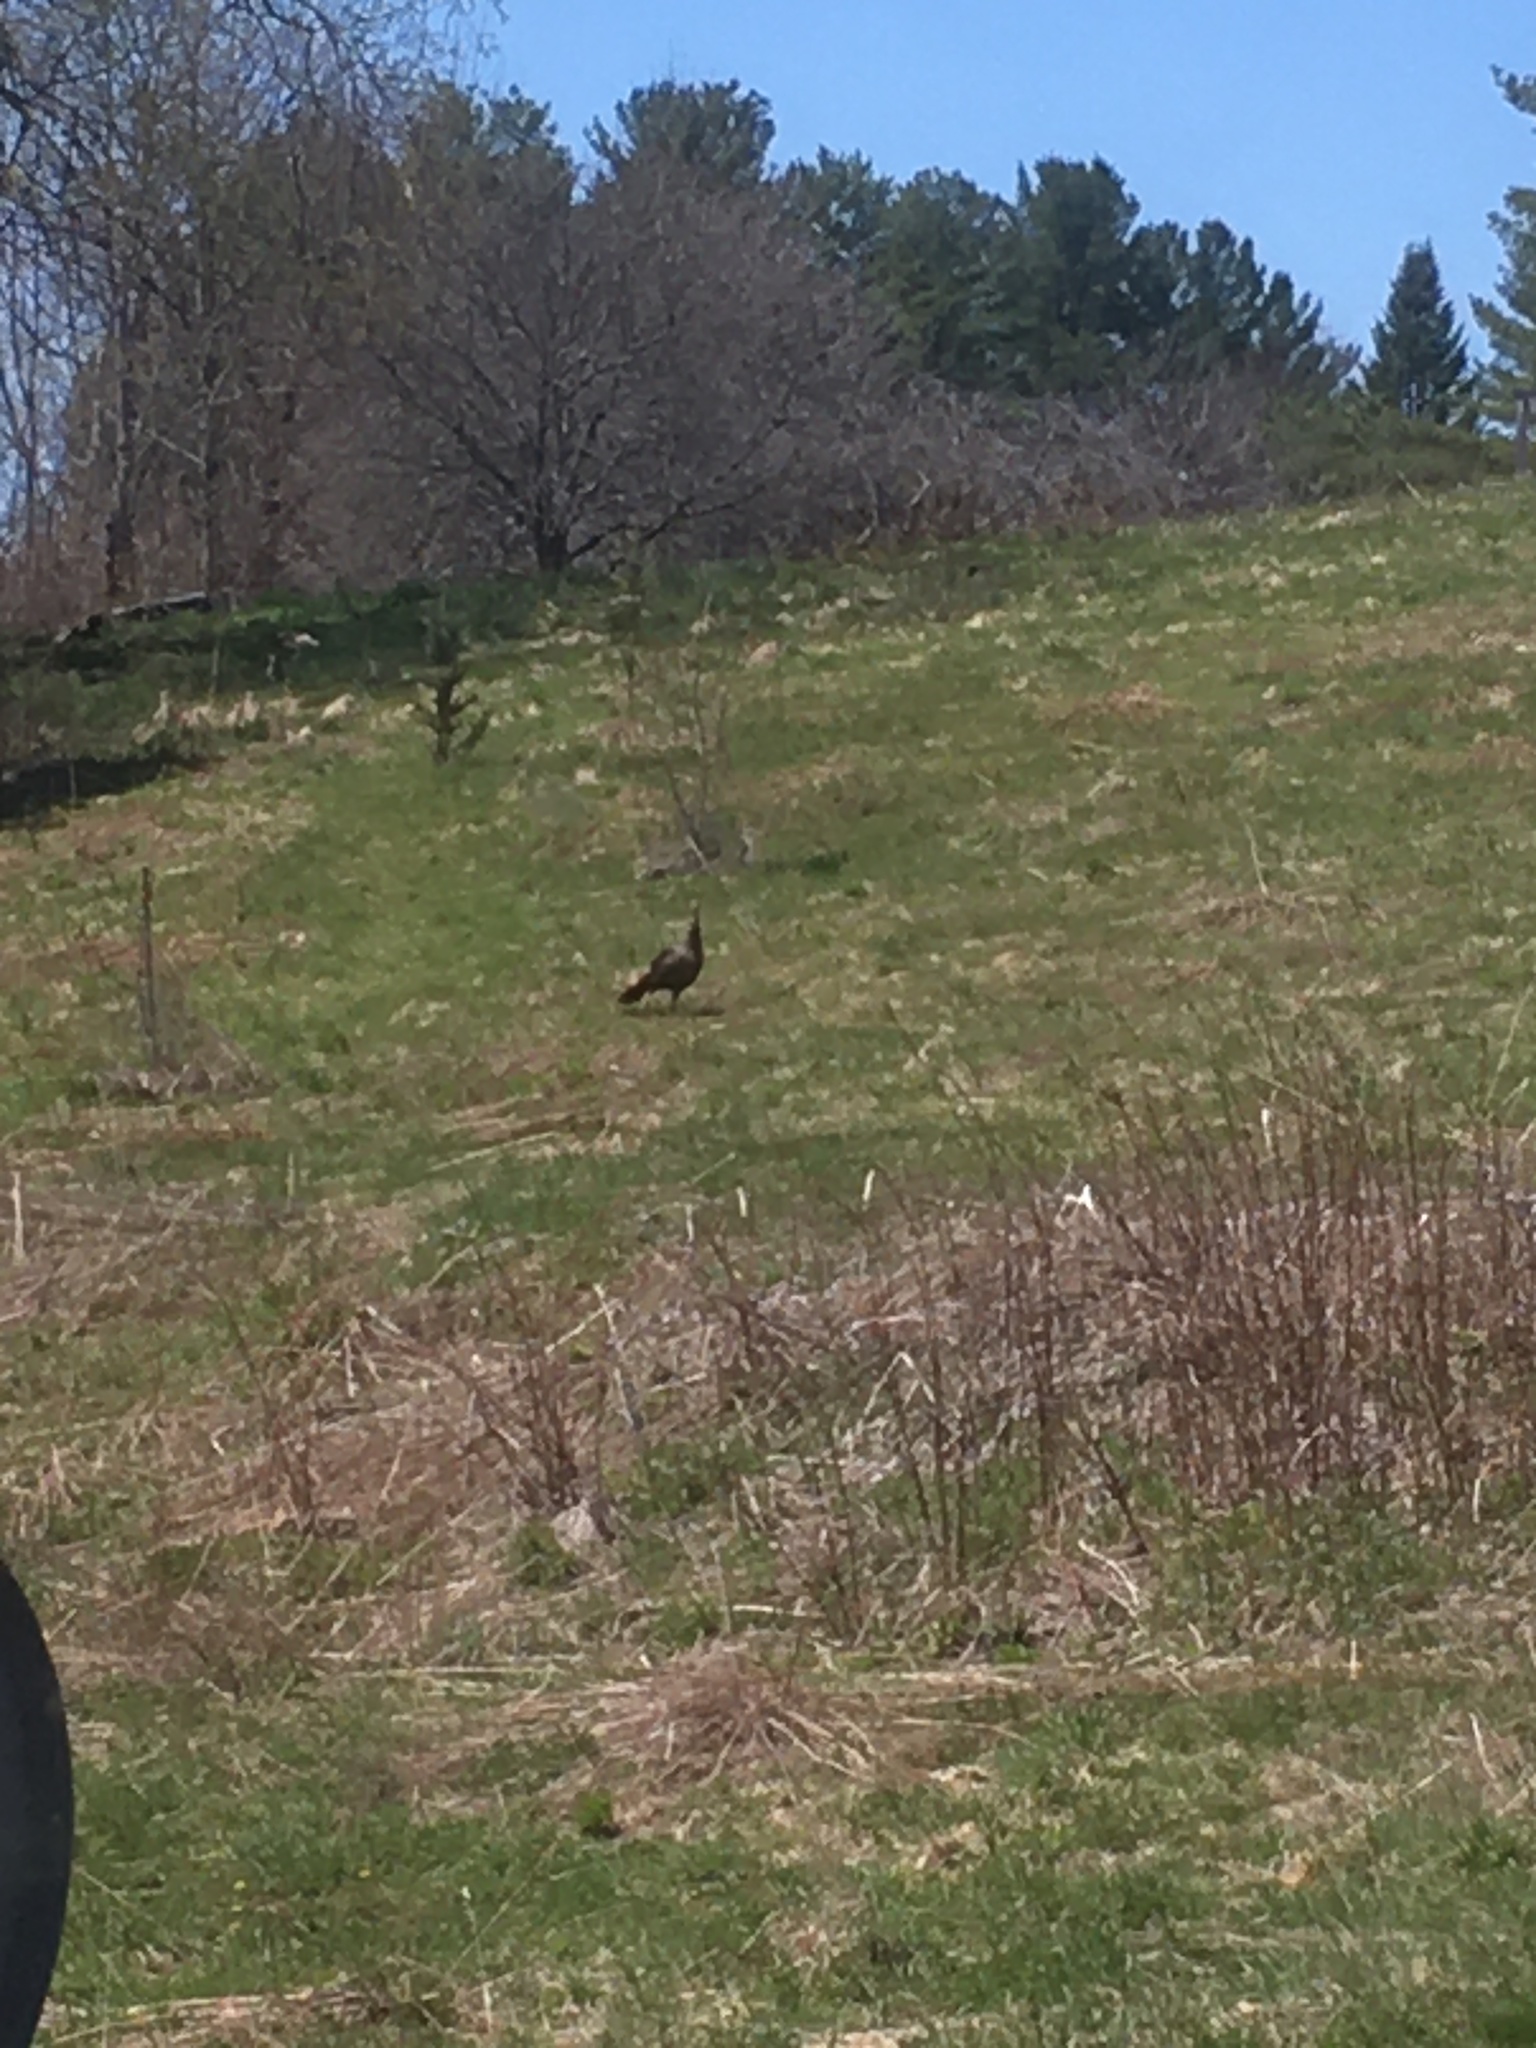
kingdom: Animalia
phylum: Chordata
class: Aves
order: Galliformes
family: Phasianidae
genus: Meleagris
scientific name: Meleagris gallopavo
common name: Wild turkey
